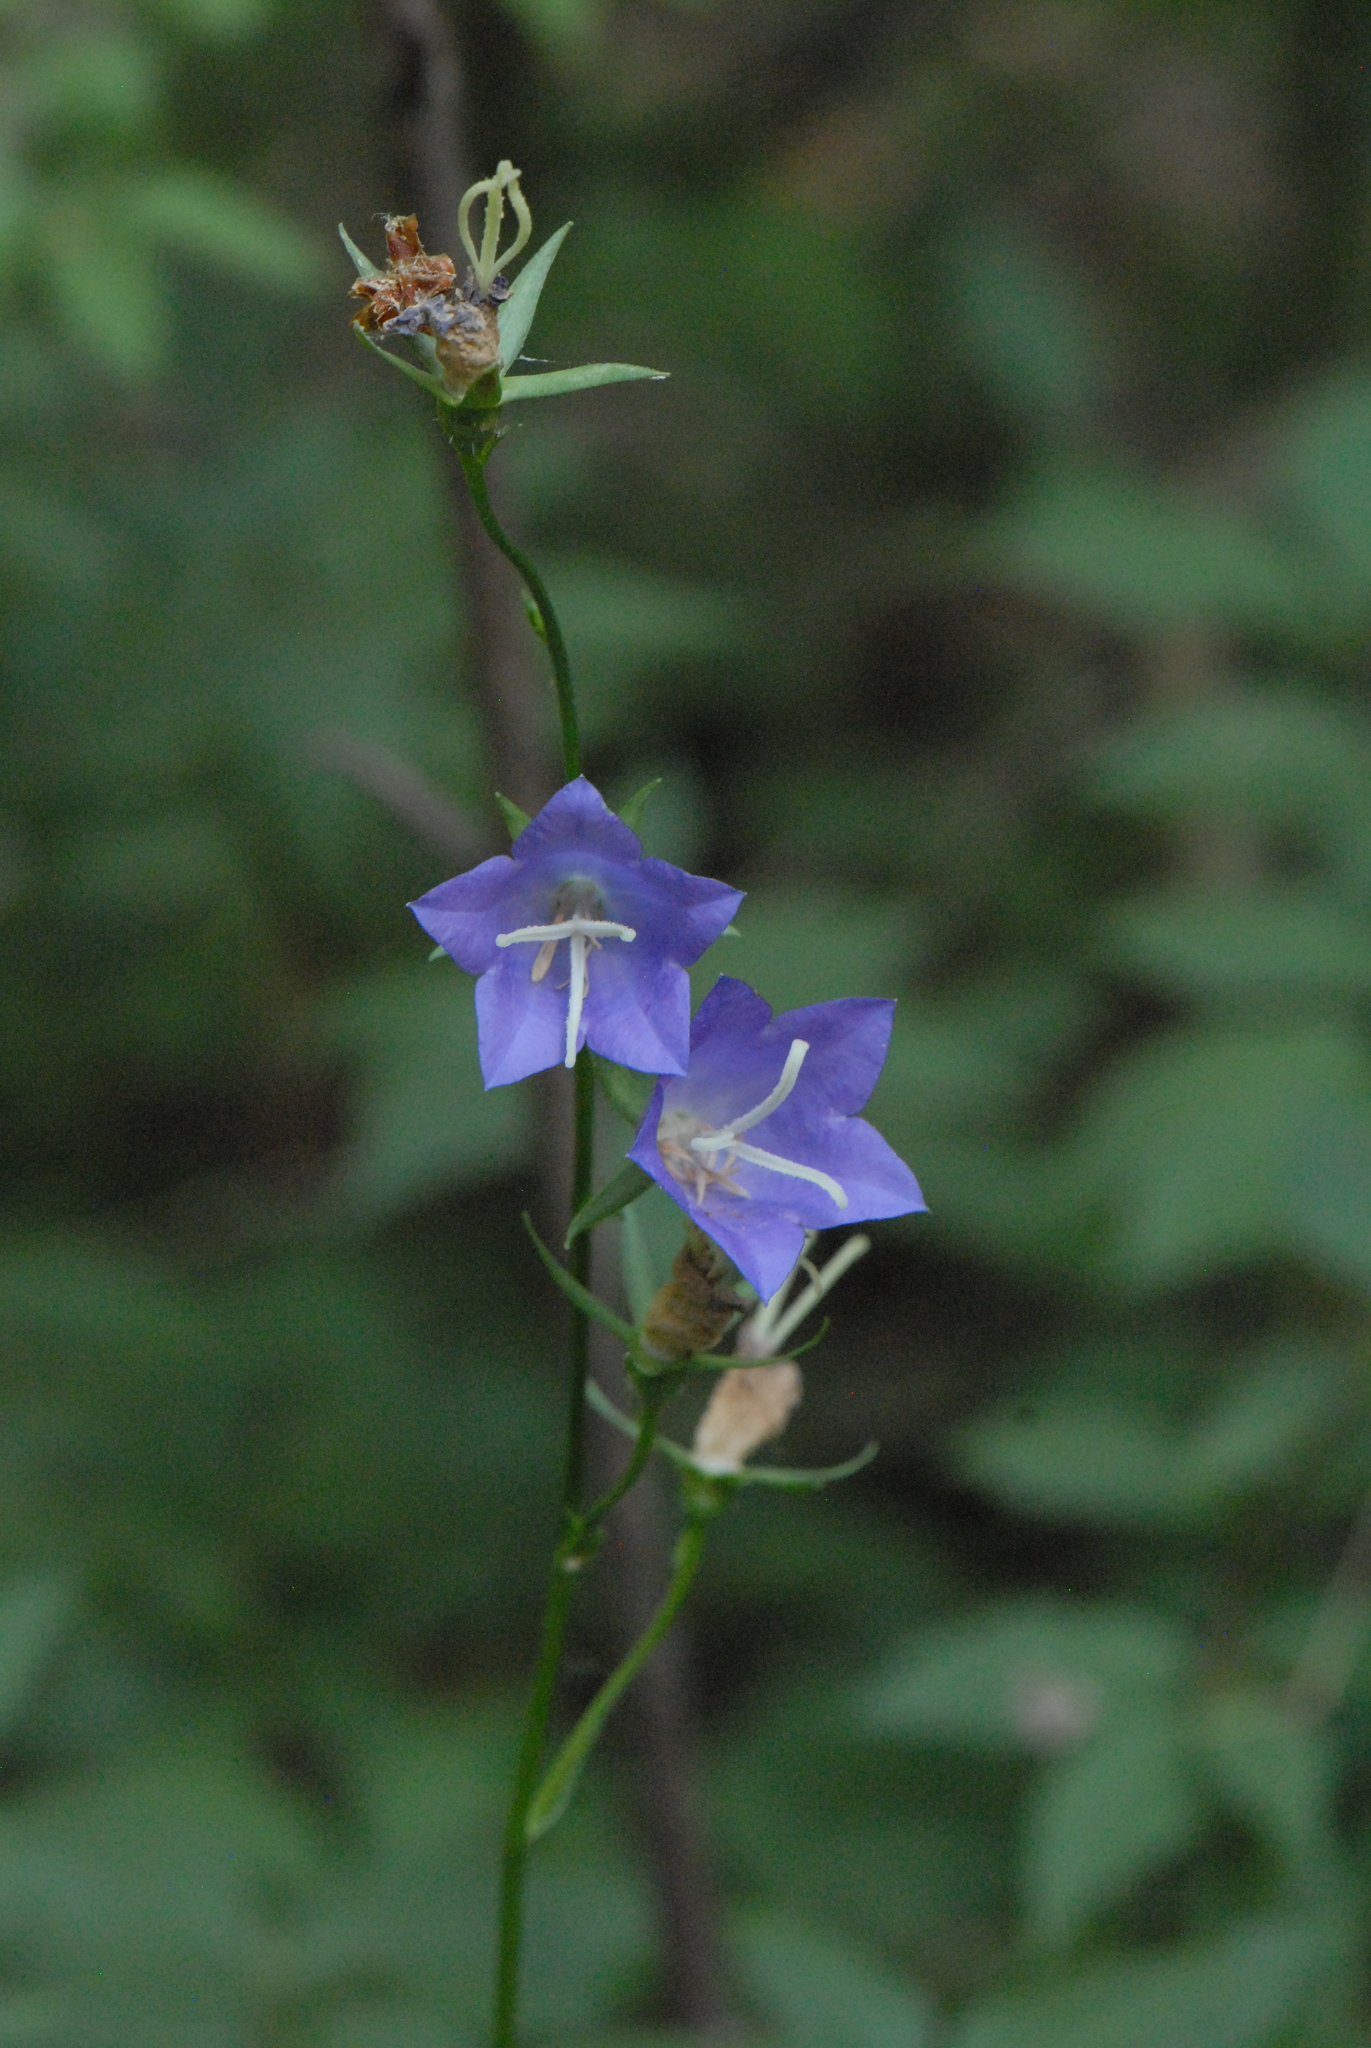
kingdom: Plantae
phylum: Tracheophyta
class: Magnoliopsida
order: Asterales
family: Campanulaceae
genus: Campanula
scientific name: Campanula persicifolia
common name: Peach-leaved bellflower
